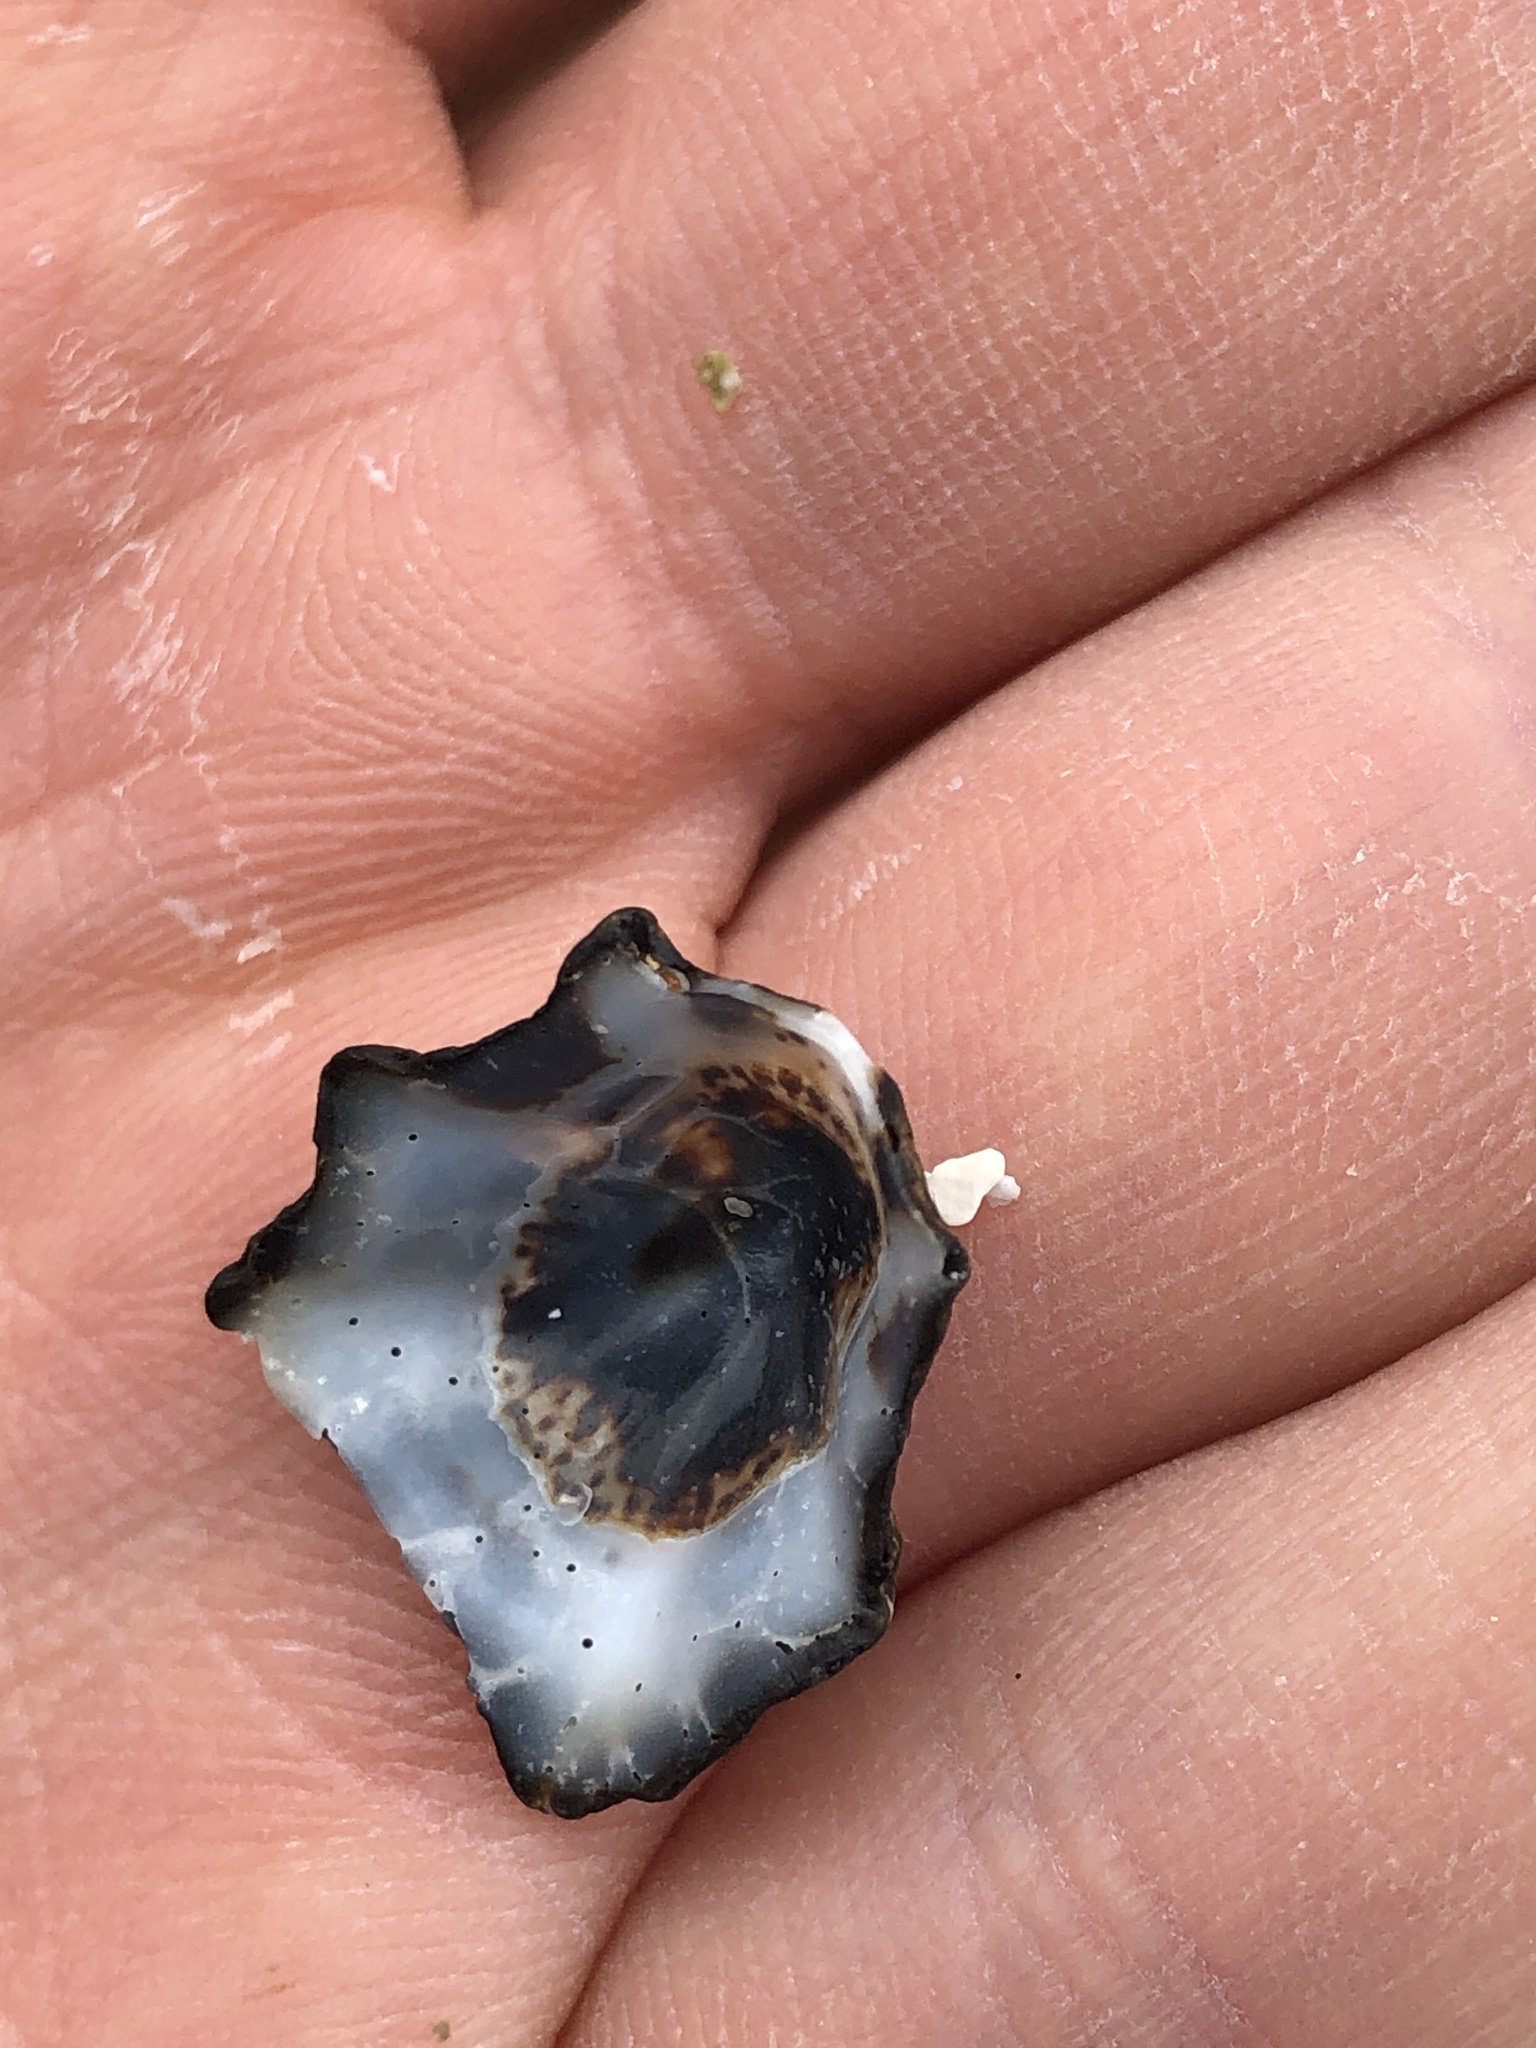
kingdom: Animalia
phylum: Mollusca
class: Gastropoda
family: Lottiidae
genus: Patelloida
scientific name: Patelloida saccharina
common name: Pacific sugar limpet
